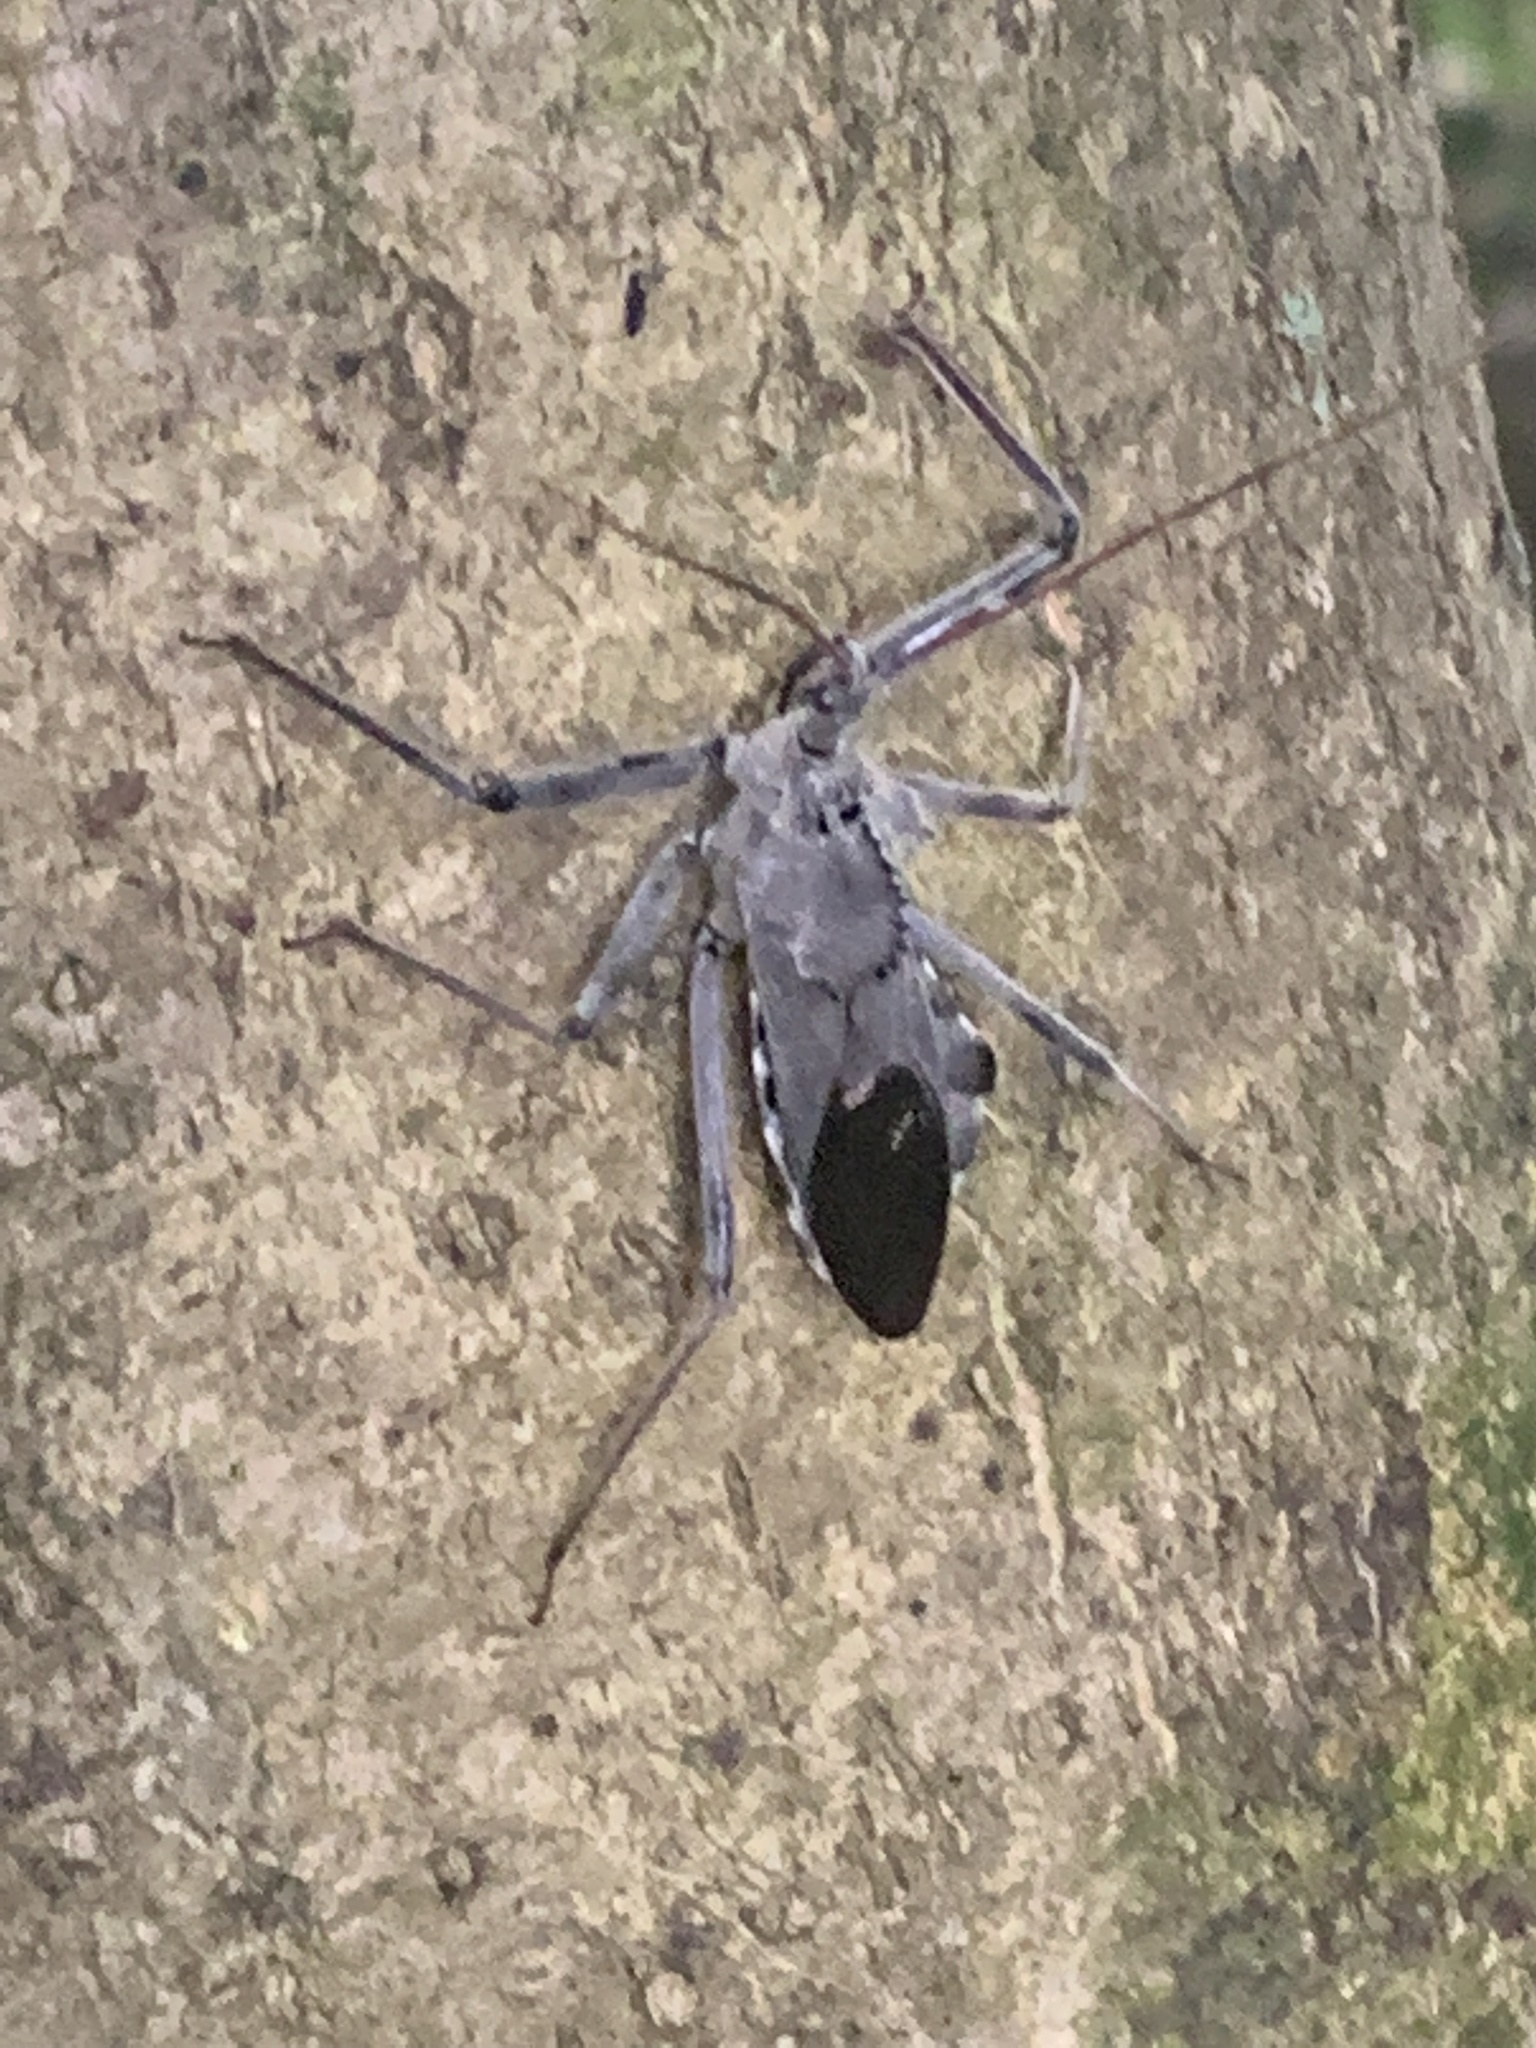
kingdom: Animalia
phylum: Arthropoda
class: Insecta
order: Hemiptera
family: Reduviidae
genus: Arilus
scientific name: Arilus cristatus
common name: North american wheel bug
